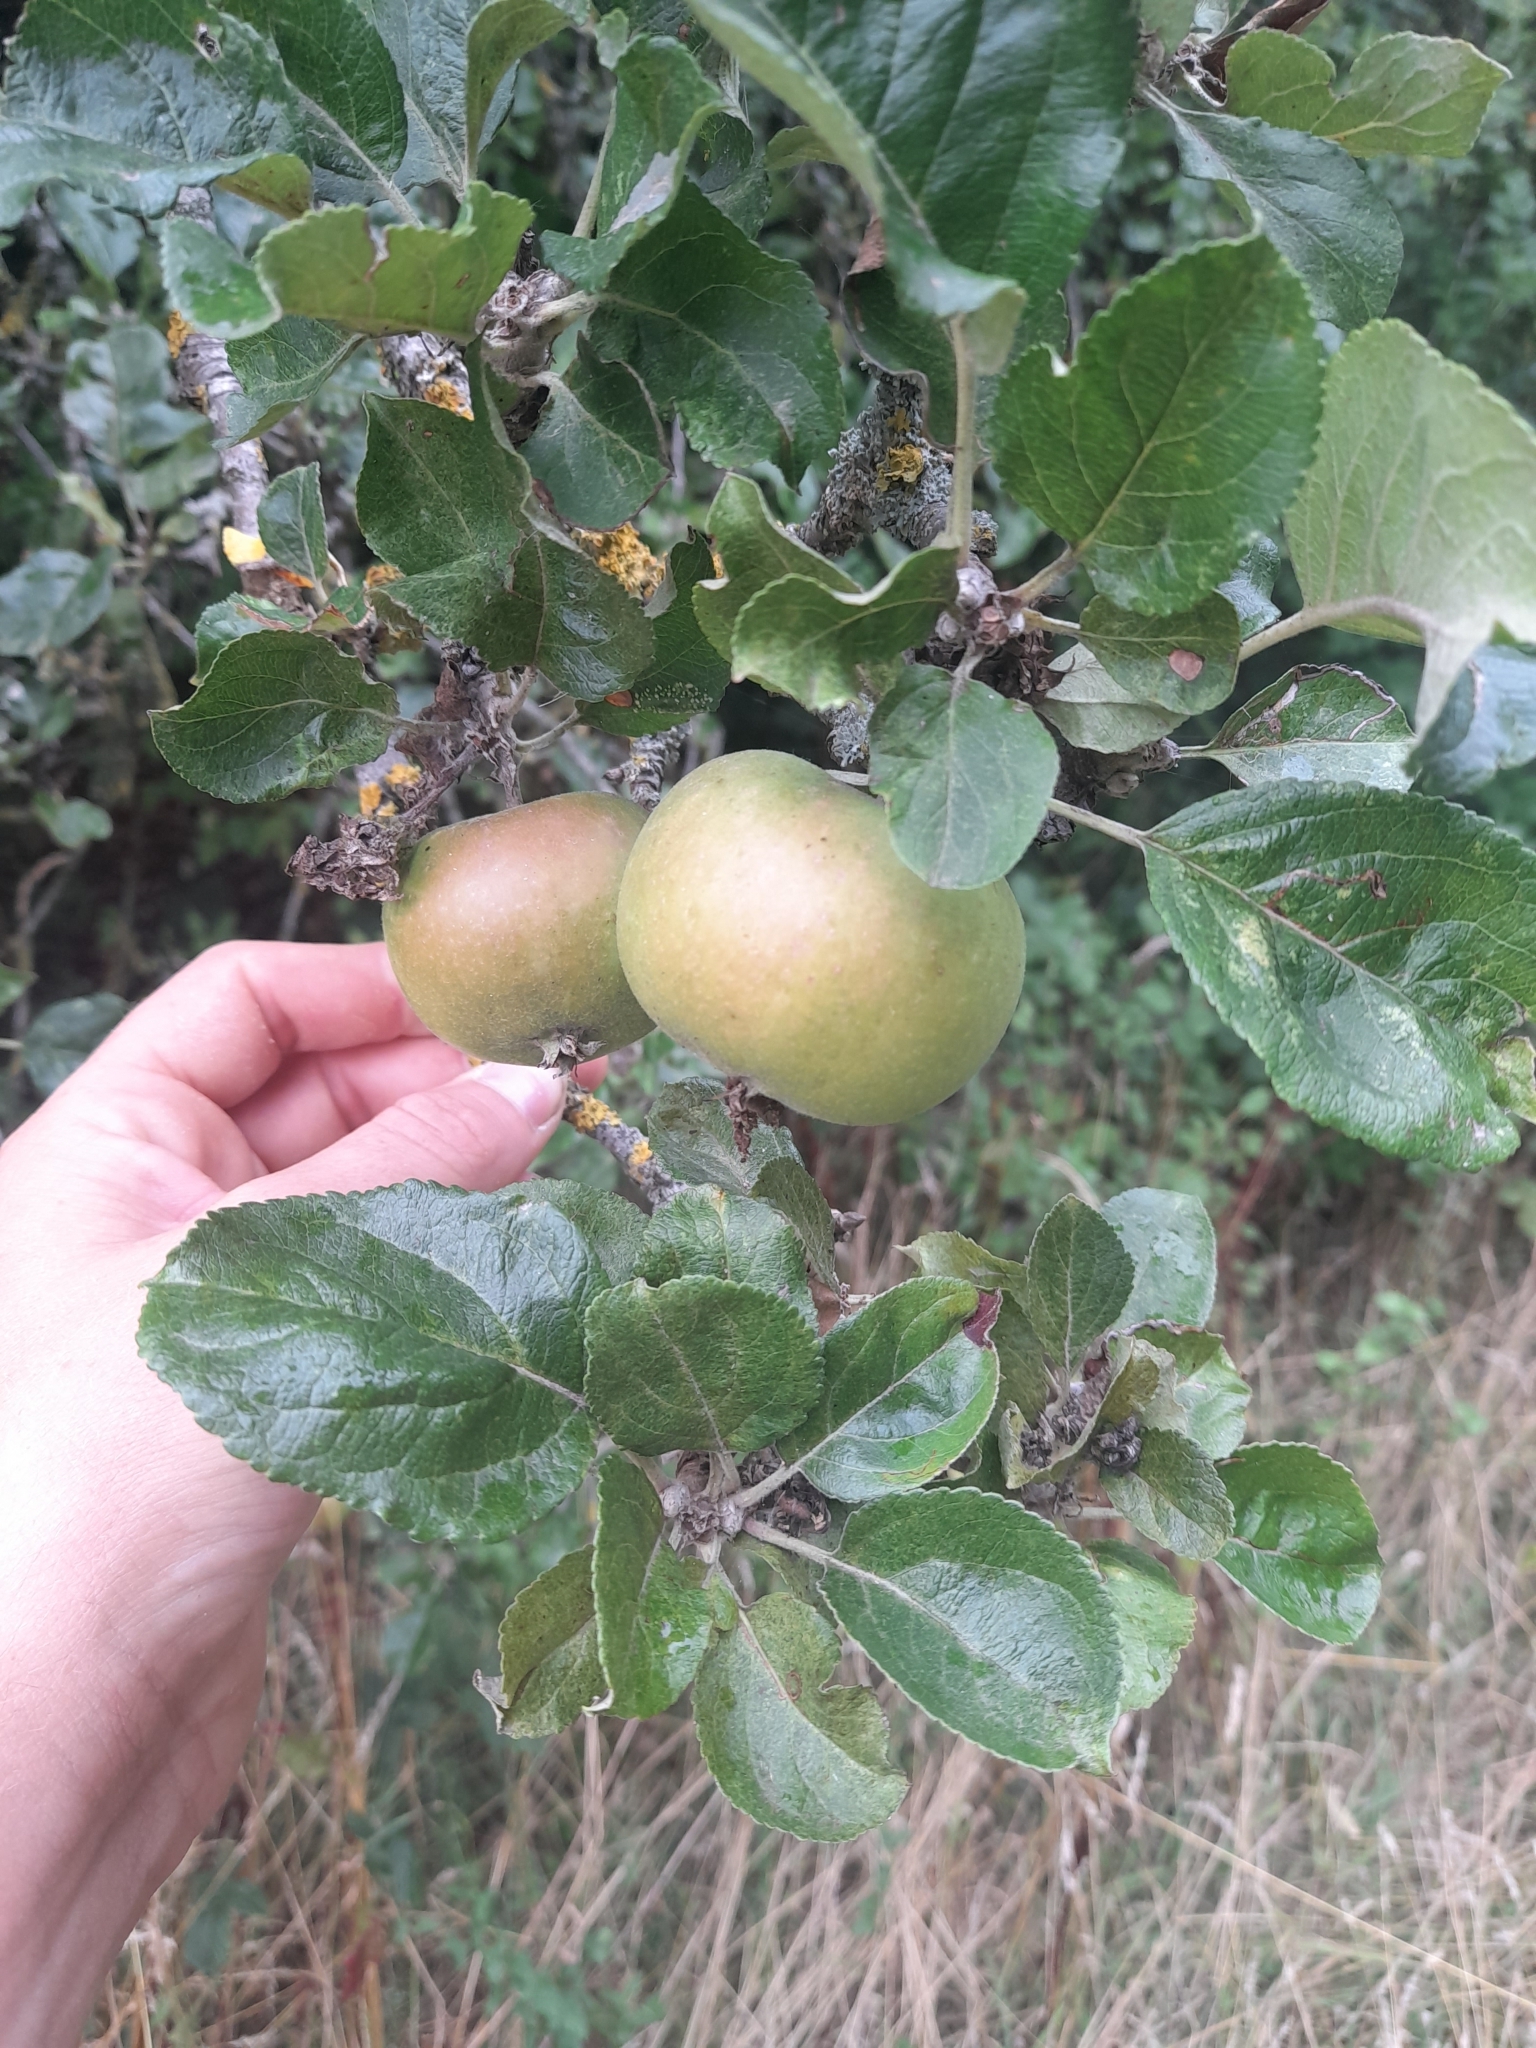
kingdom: Plantae
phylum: Tracheophyta
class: Magnoliopsida
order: Rosales
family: Rosaceae
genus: Malus
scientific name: Malus domestica
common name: Apple
